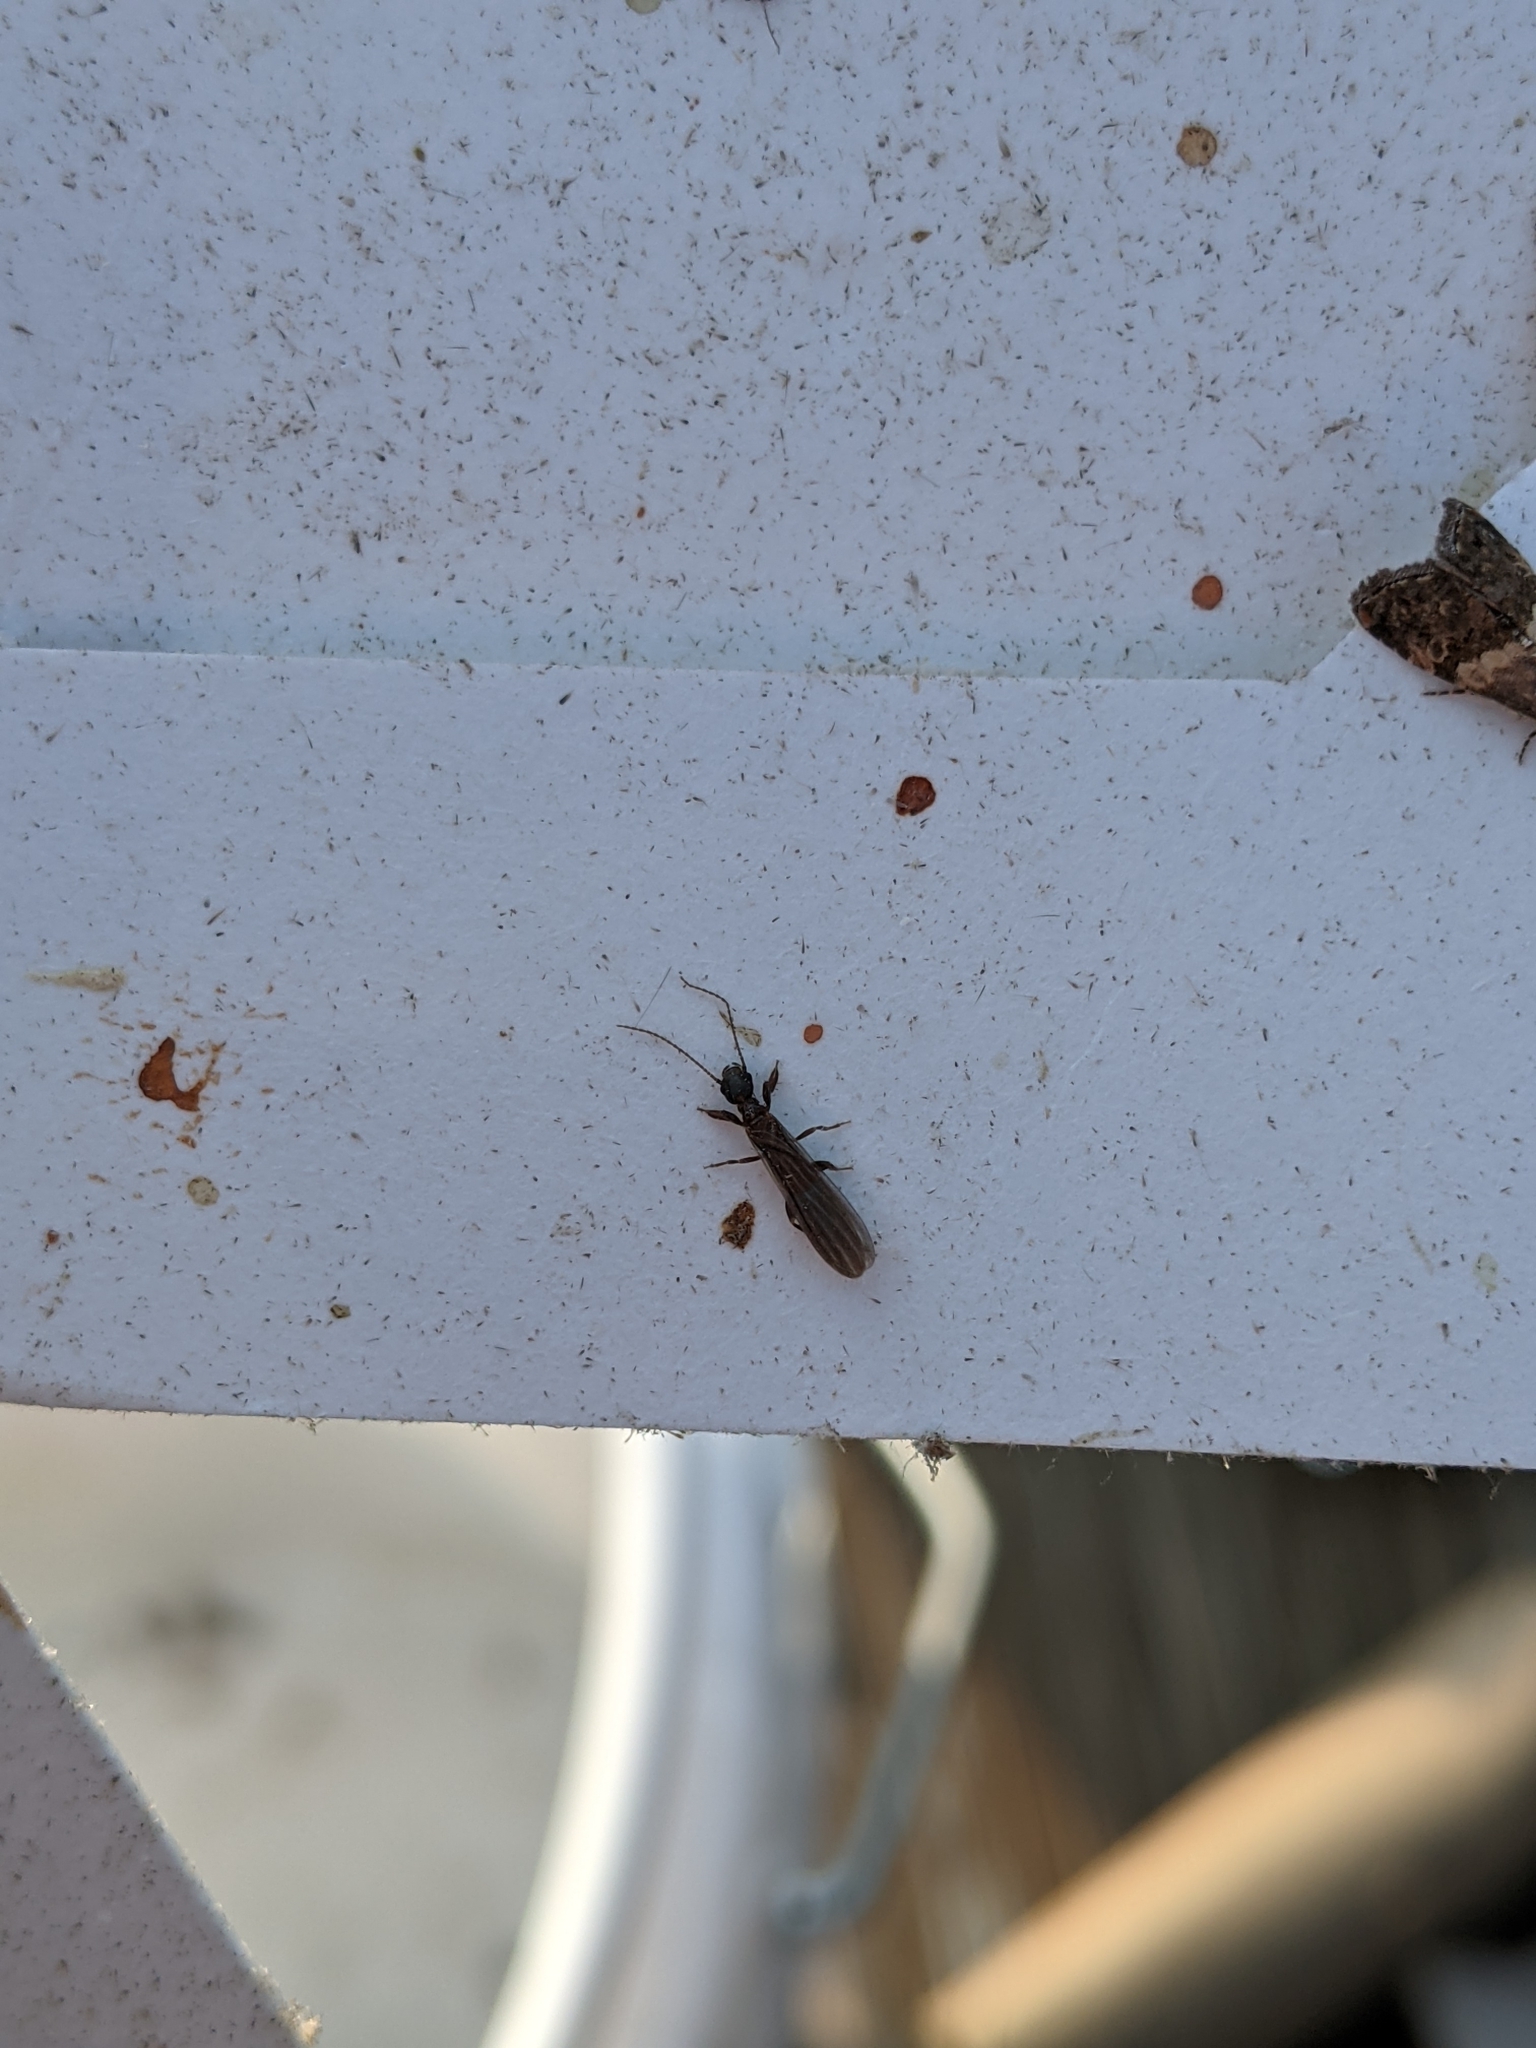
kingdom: Animalia
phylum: Arthropoda
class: Insecta
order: Embioptera
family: Oligotomidae
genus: Oligotoma
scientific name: Oligotoma nigra
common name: Black webspinner
